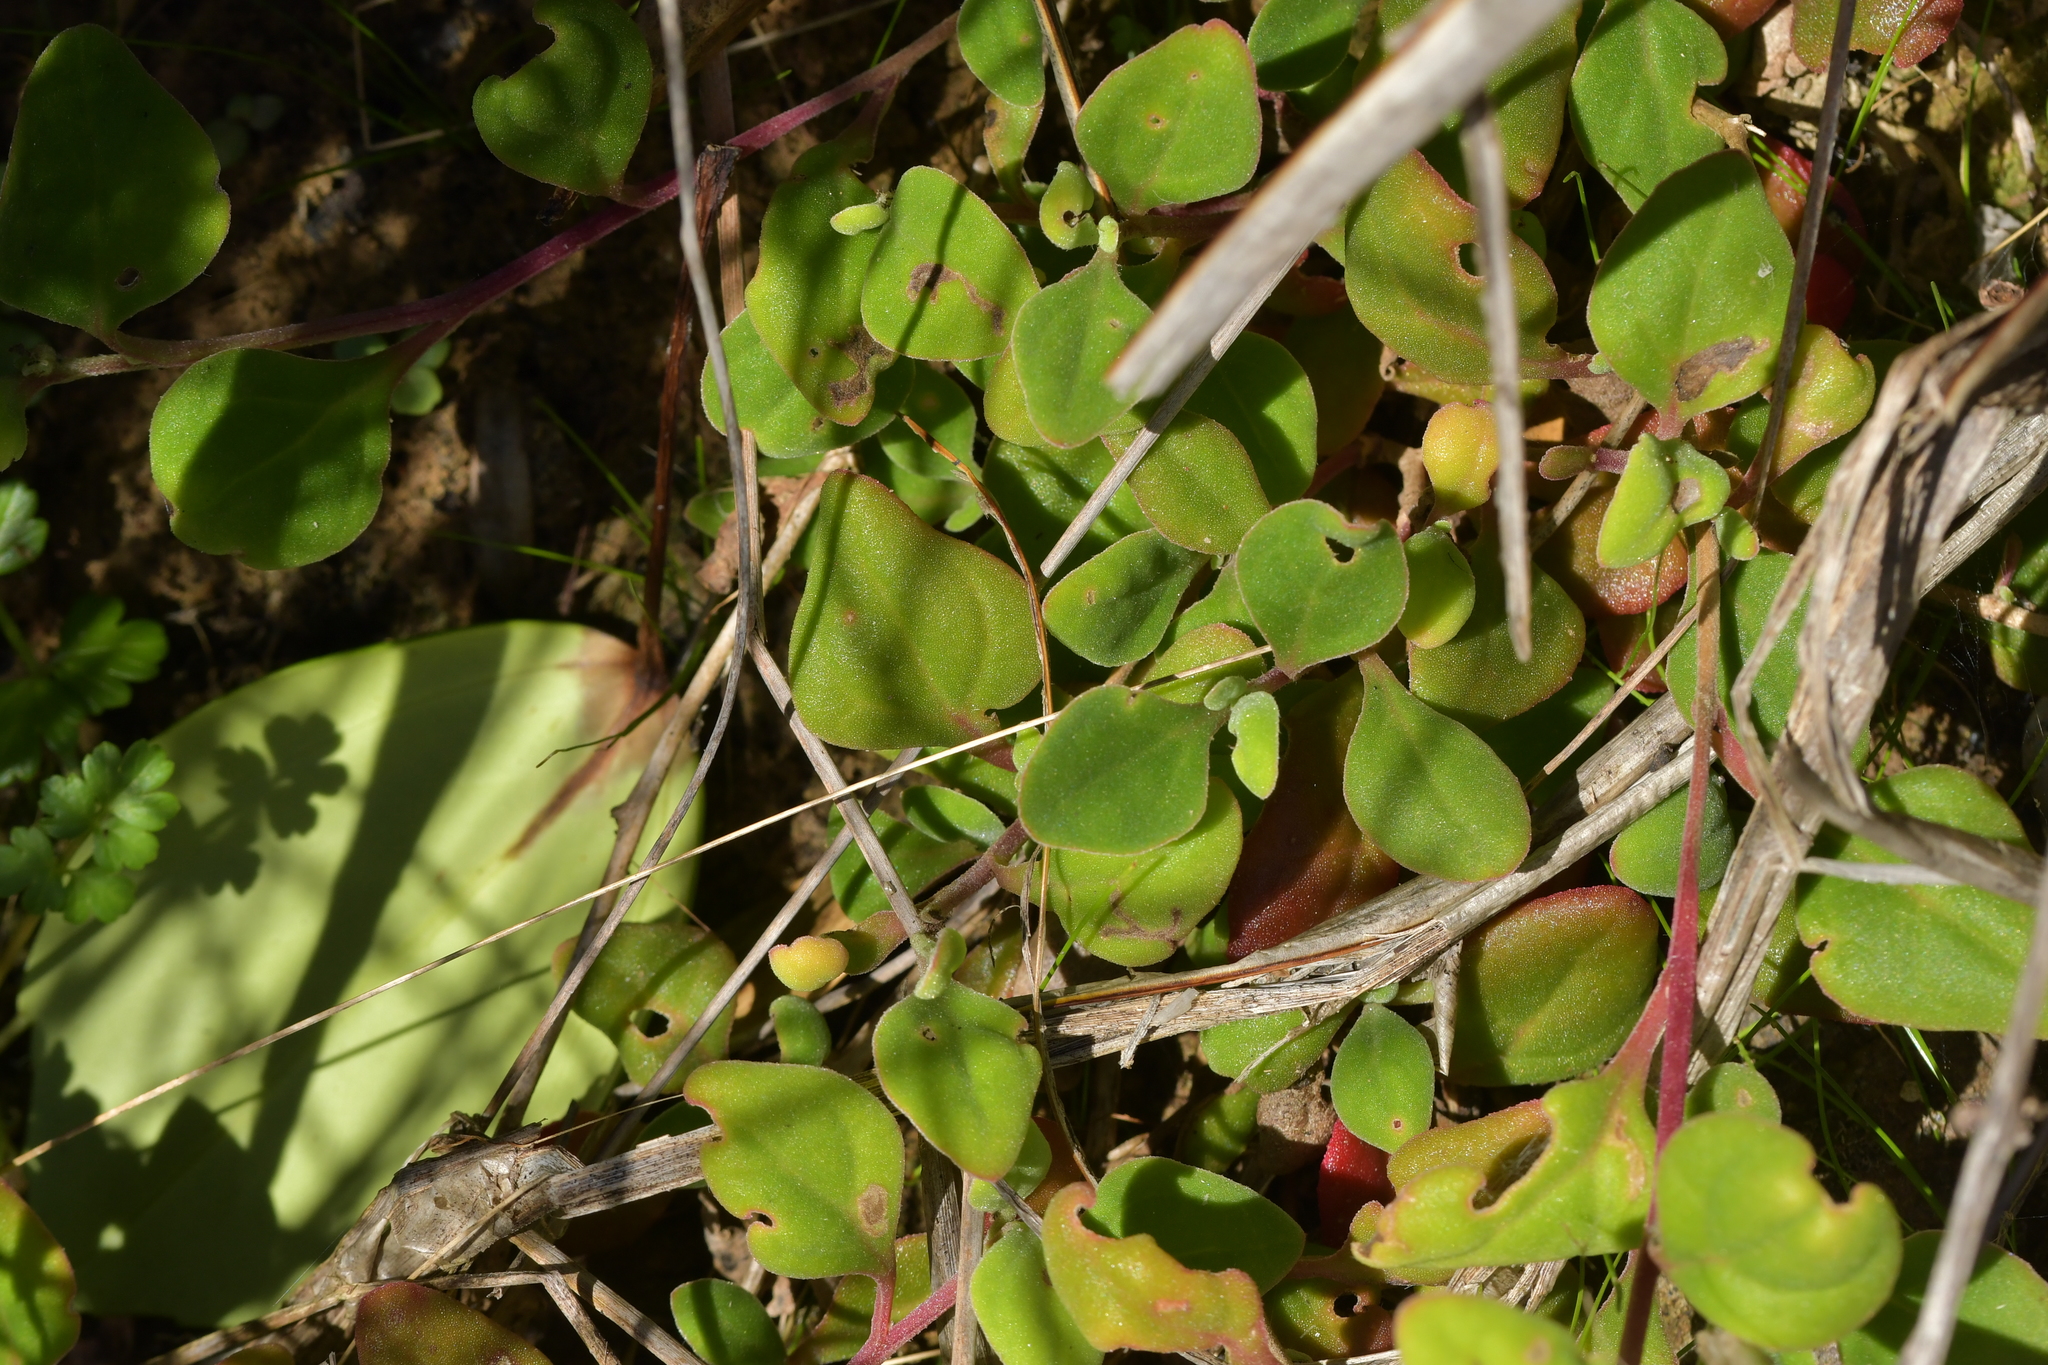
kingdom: Plantae
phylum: Tracheophyta
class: Magnoliopsida
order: Caryophyllales
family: Aizoaceae
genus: Tetragonia
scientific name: Tetragonia implexicoma
